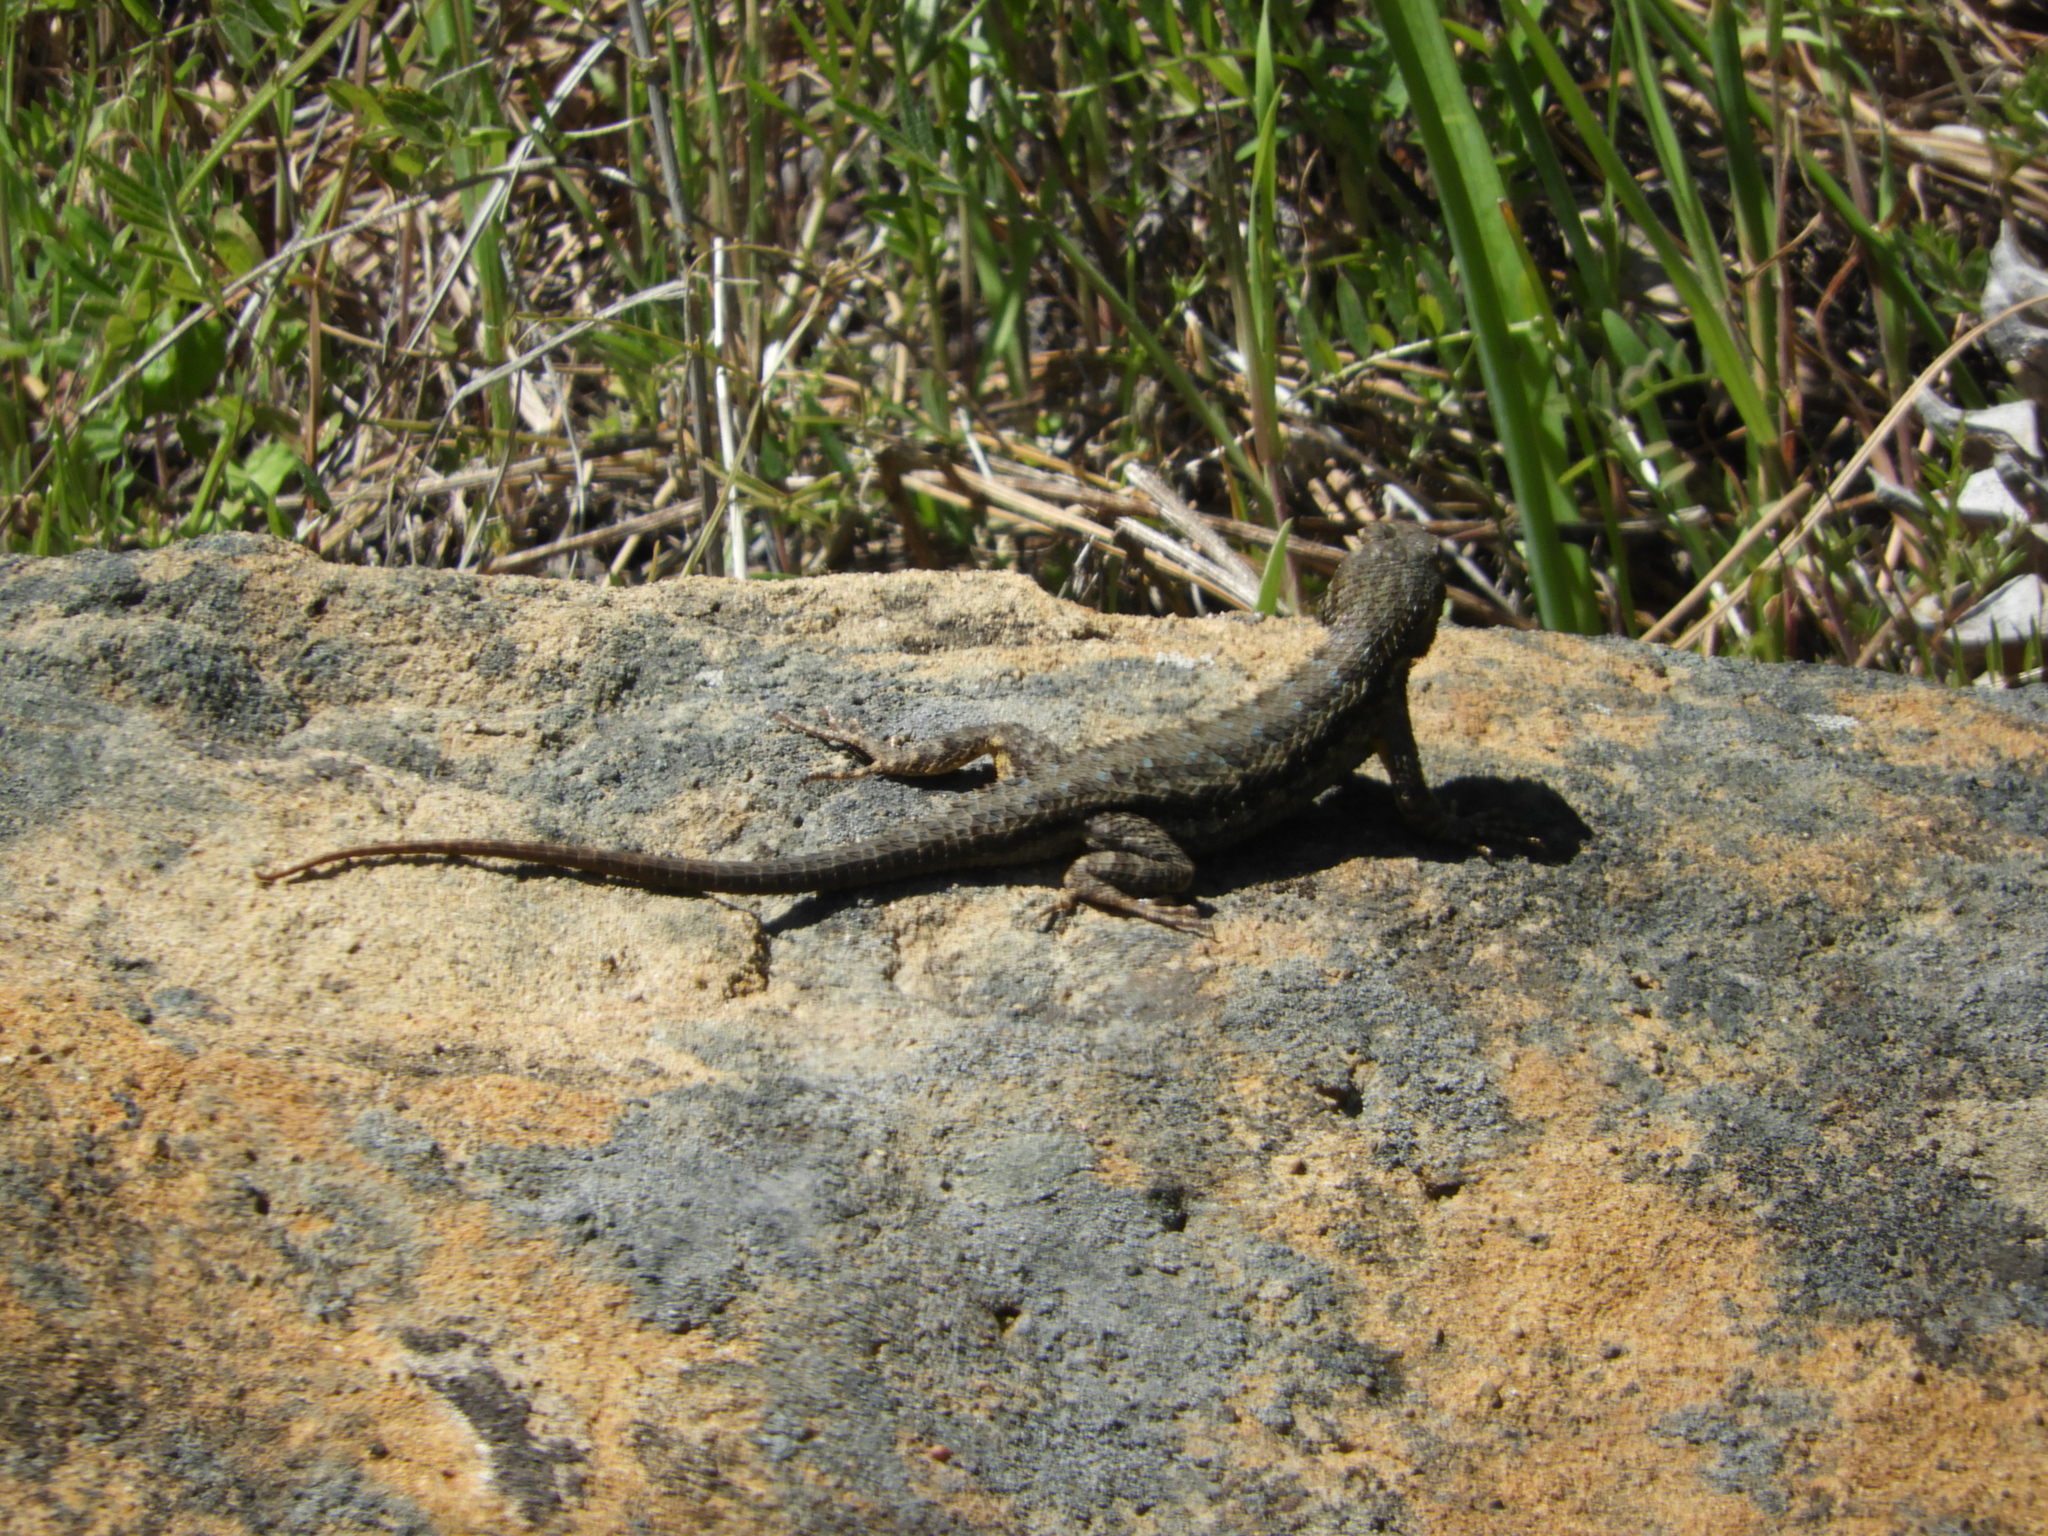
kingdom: Animalia
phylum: Chordata
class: Squamata
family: Phrynosomatidae
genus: Sceloporus
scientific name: Sceloporus occidentalis
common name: Western fence lizard
